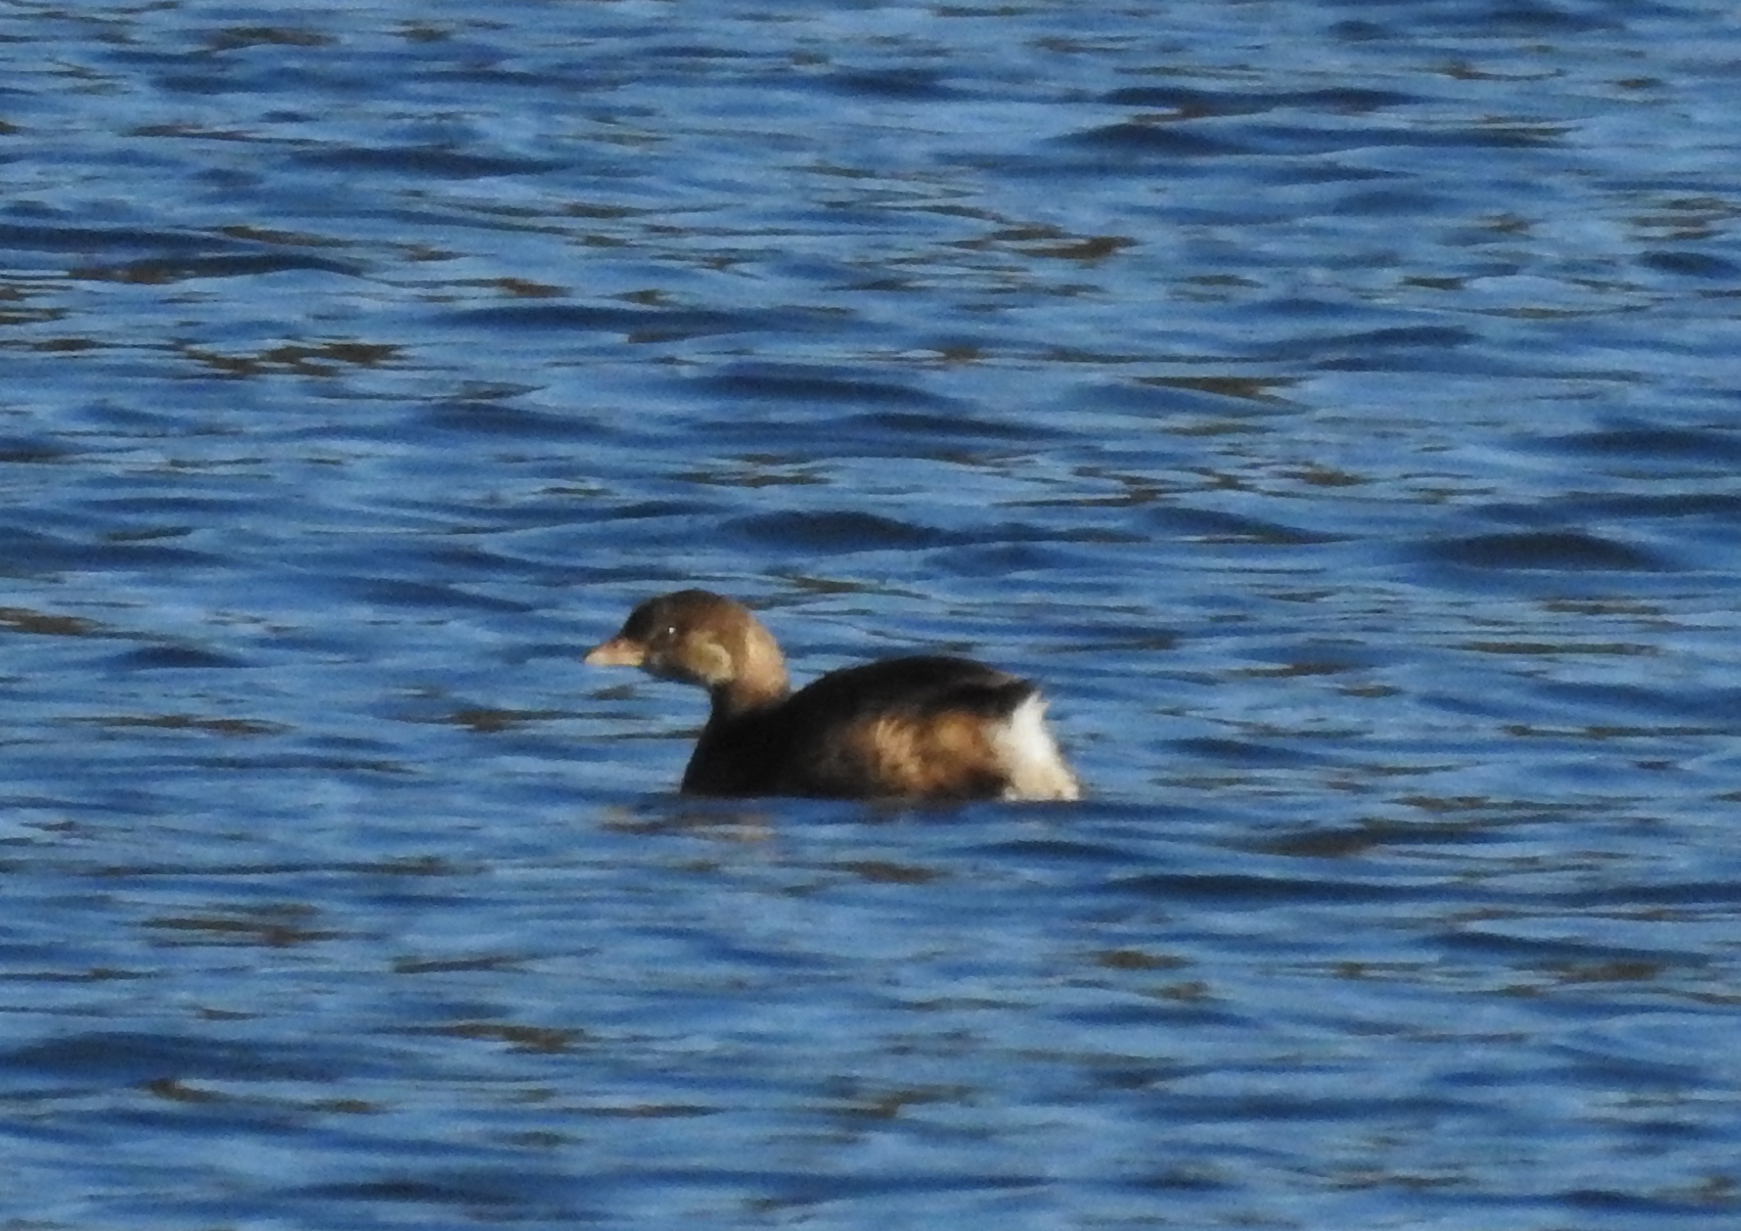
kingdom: Animalia
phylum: Chordata
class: Aves
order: Podicipediformes
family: Podicipedidae
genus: Podilymbus
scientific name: Podilymbus podiceps
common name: Pied-billed grebe
